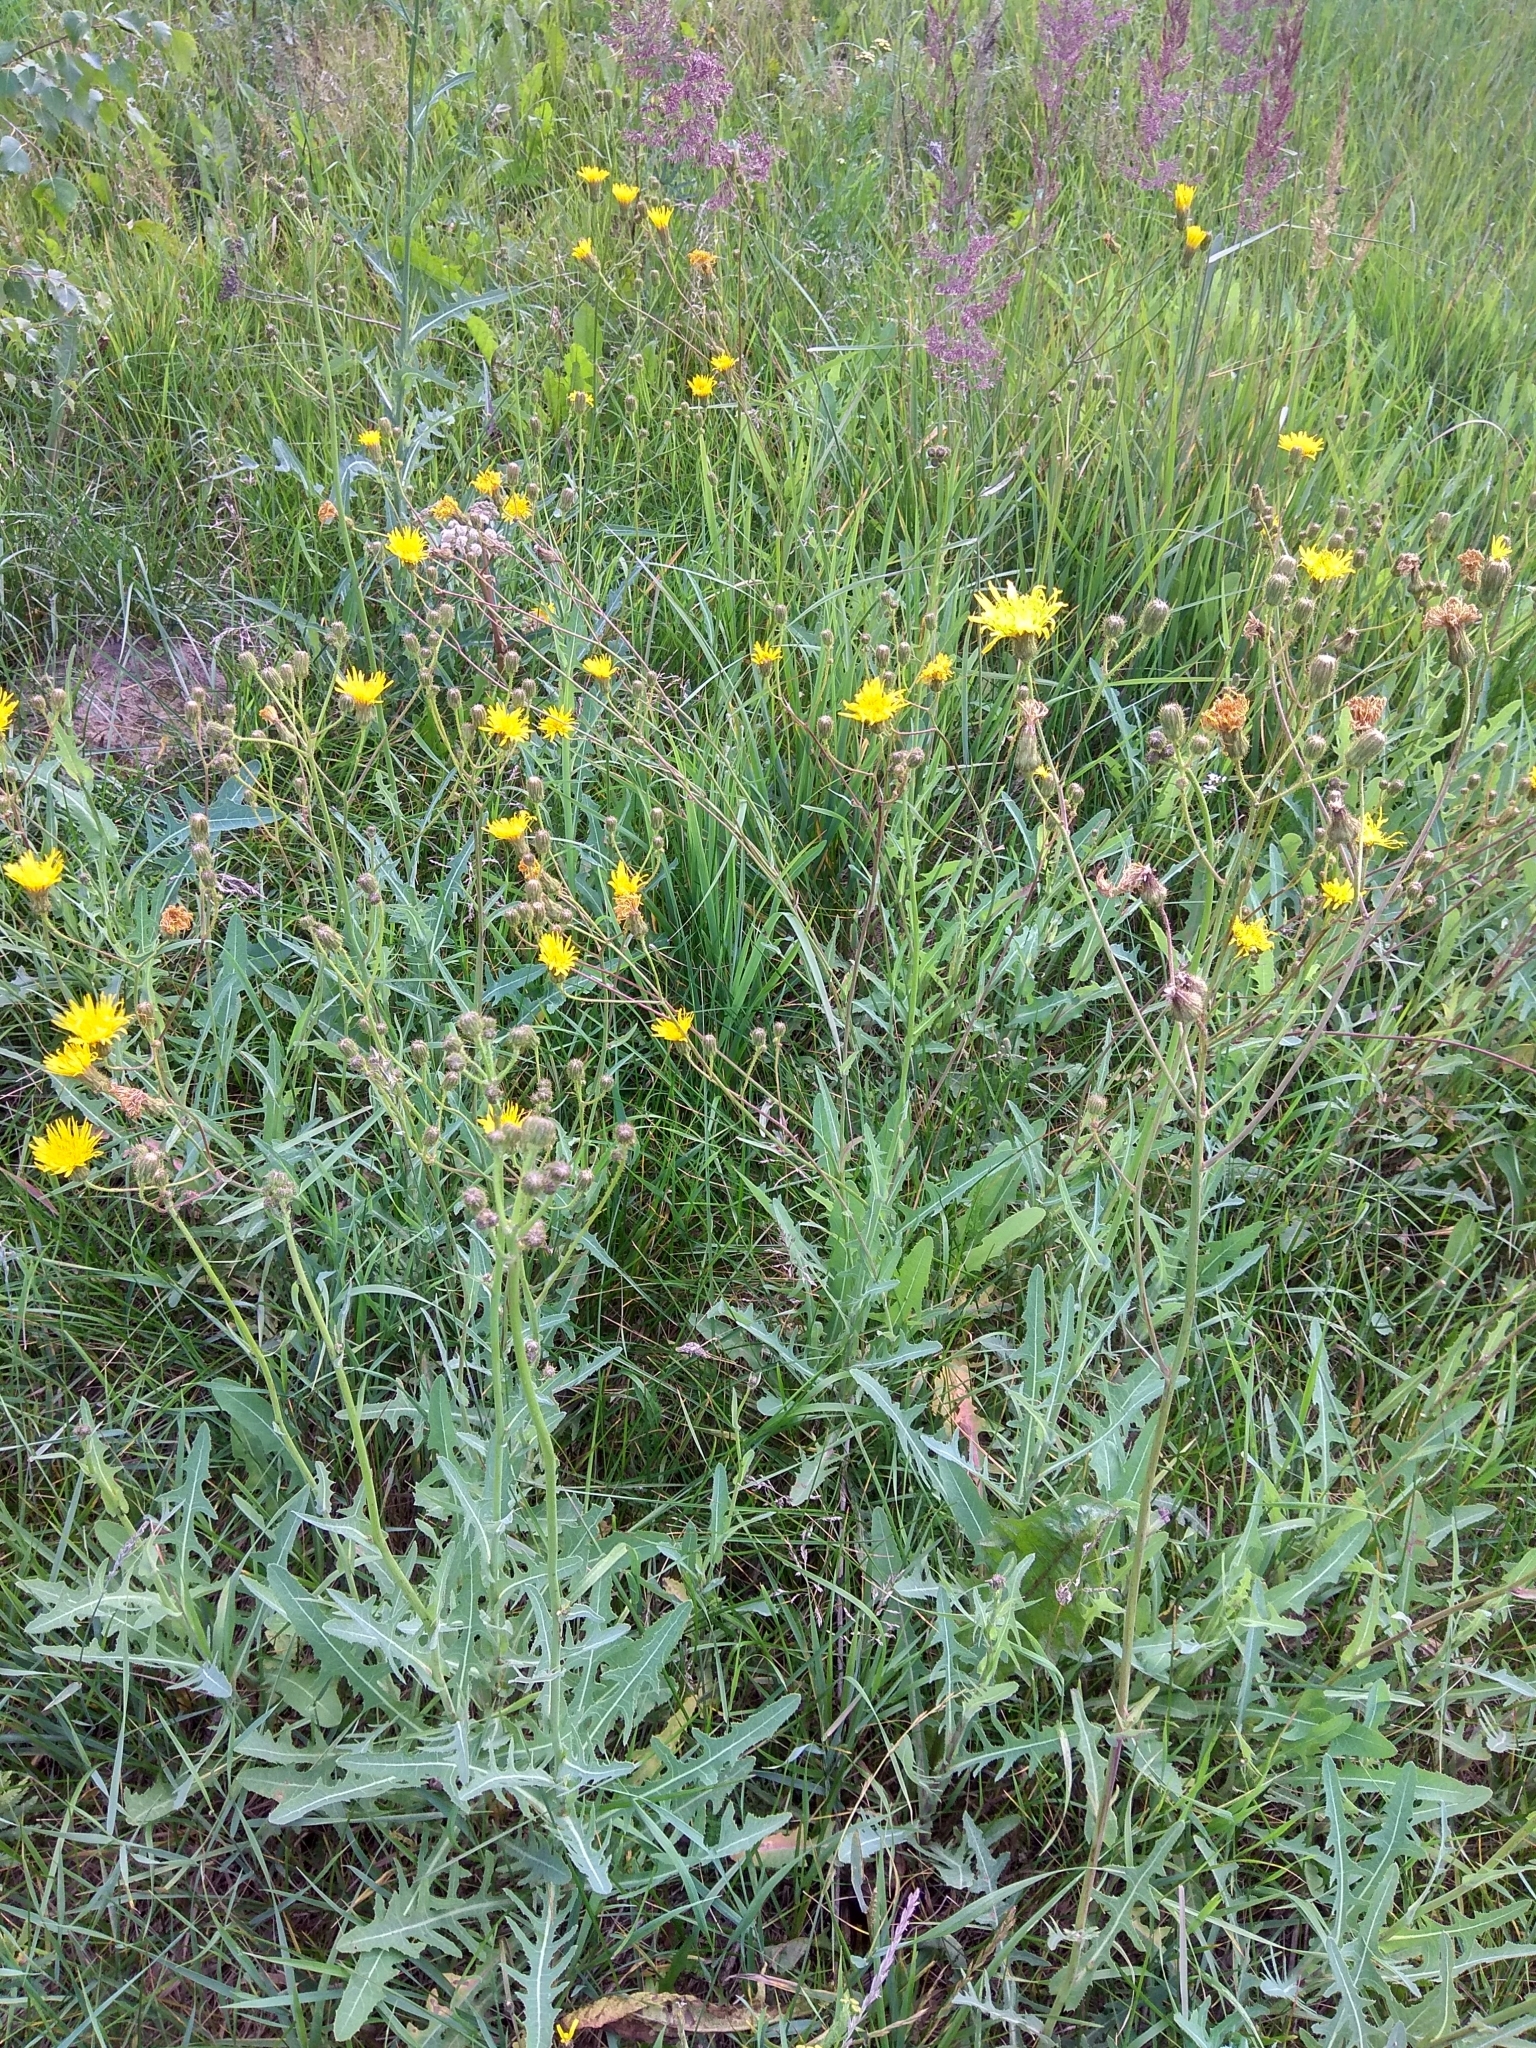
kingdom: Plantae
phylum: Tracheophyta
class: Magnoliopsida
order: Asterales
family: Asteraceae
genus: Sonchus
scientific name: Sonchus arvensis
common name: Perennial sow-thistle
